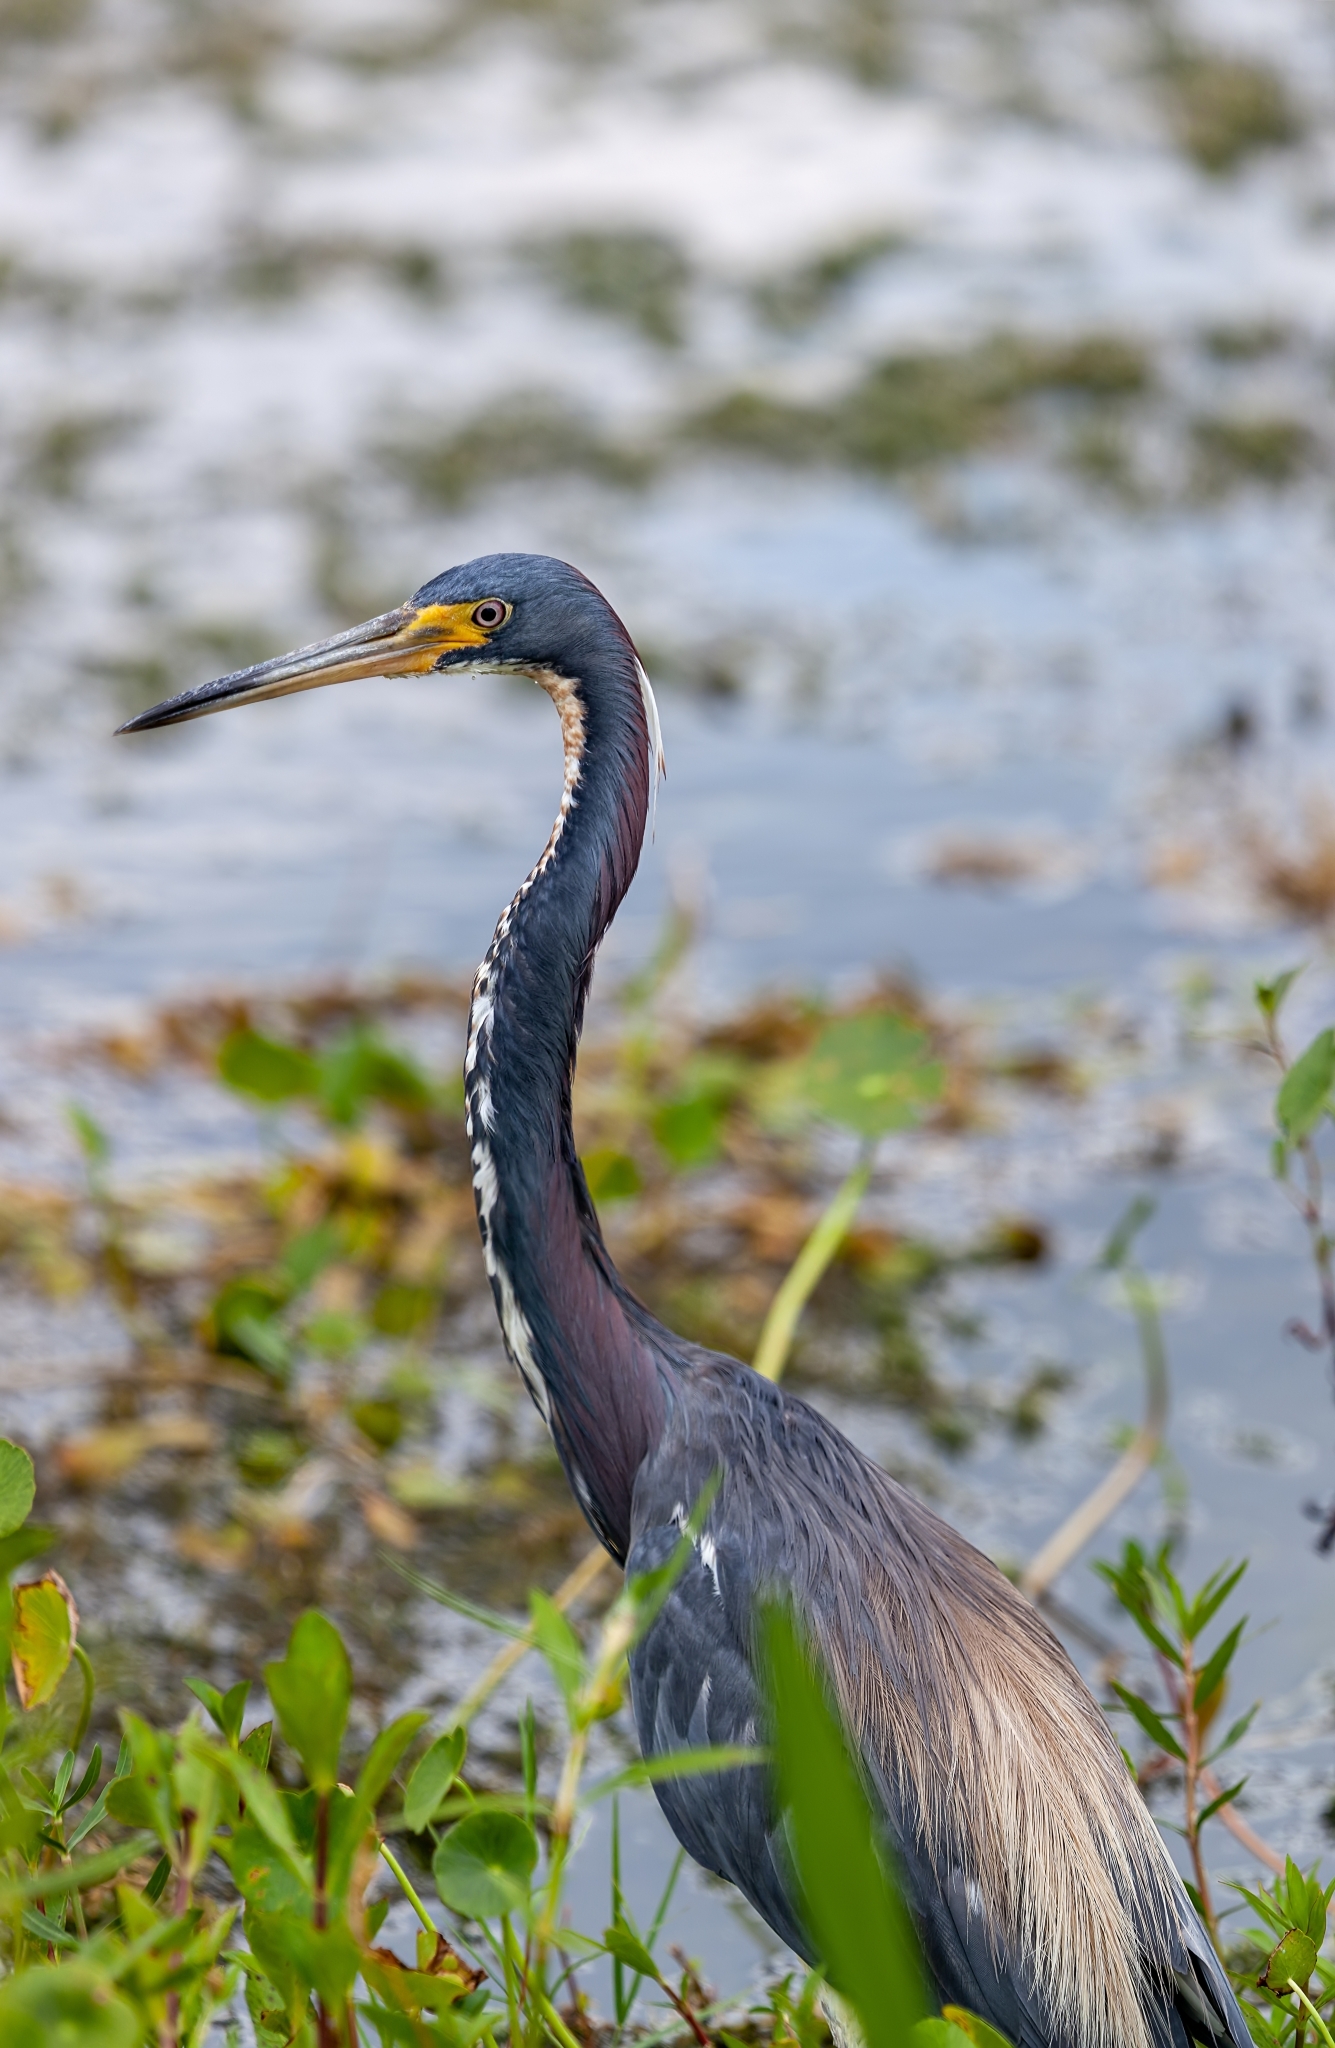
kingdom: Animalia
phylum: Chordata
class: Aves
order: Pelecaniformes
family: Ardeidae
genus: Egretta
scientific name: Egretta tricolor
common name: Tricolored heron
